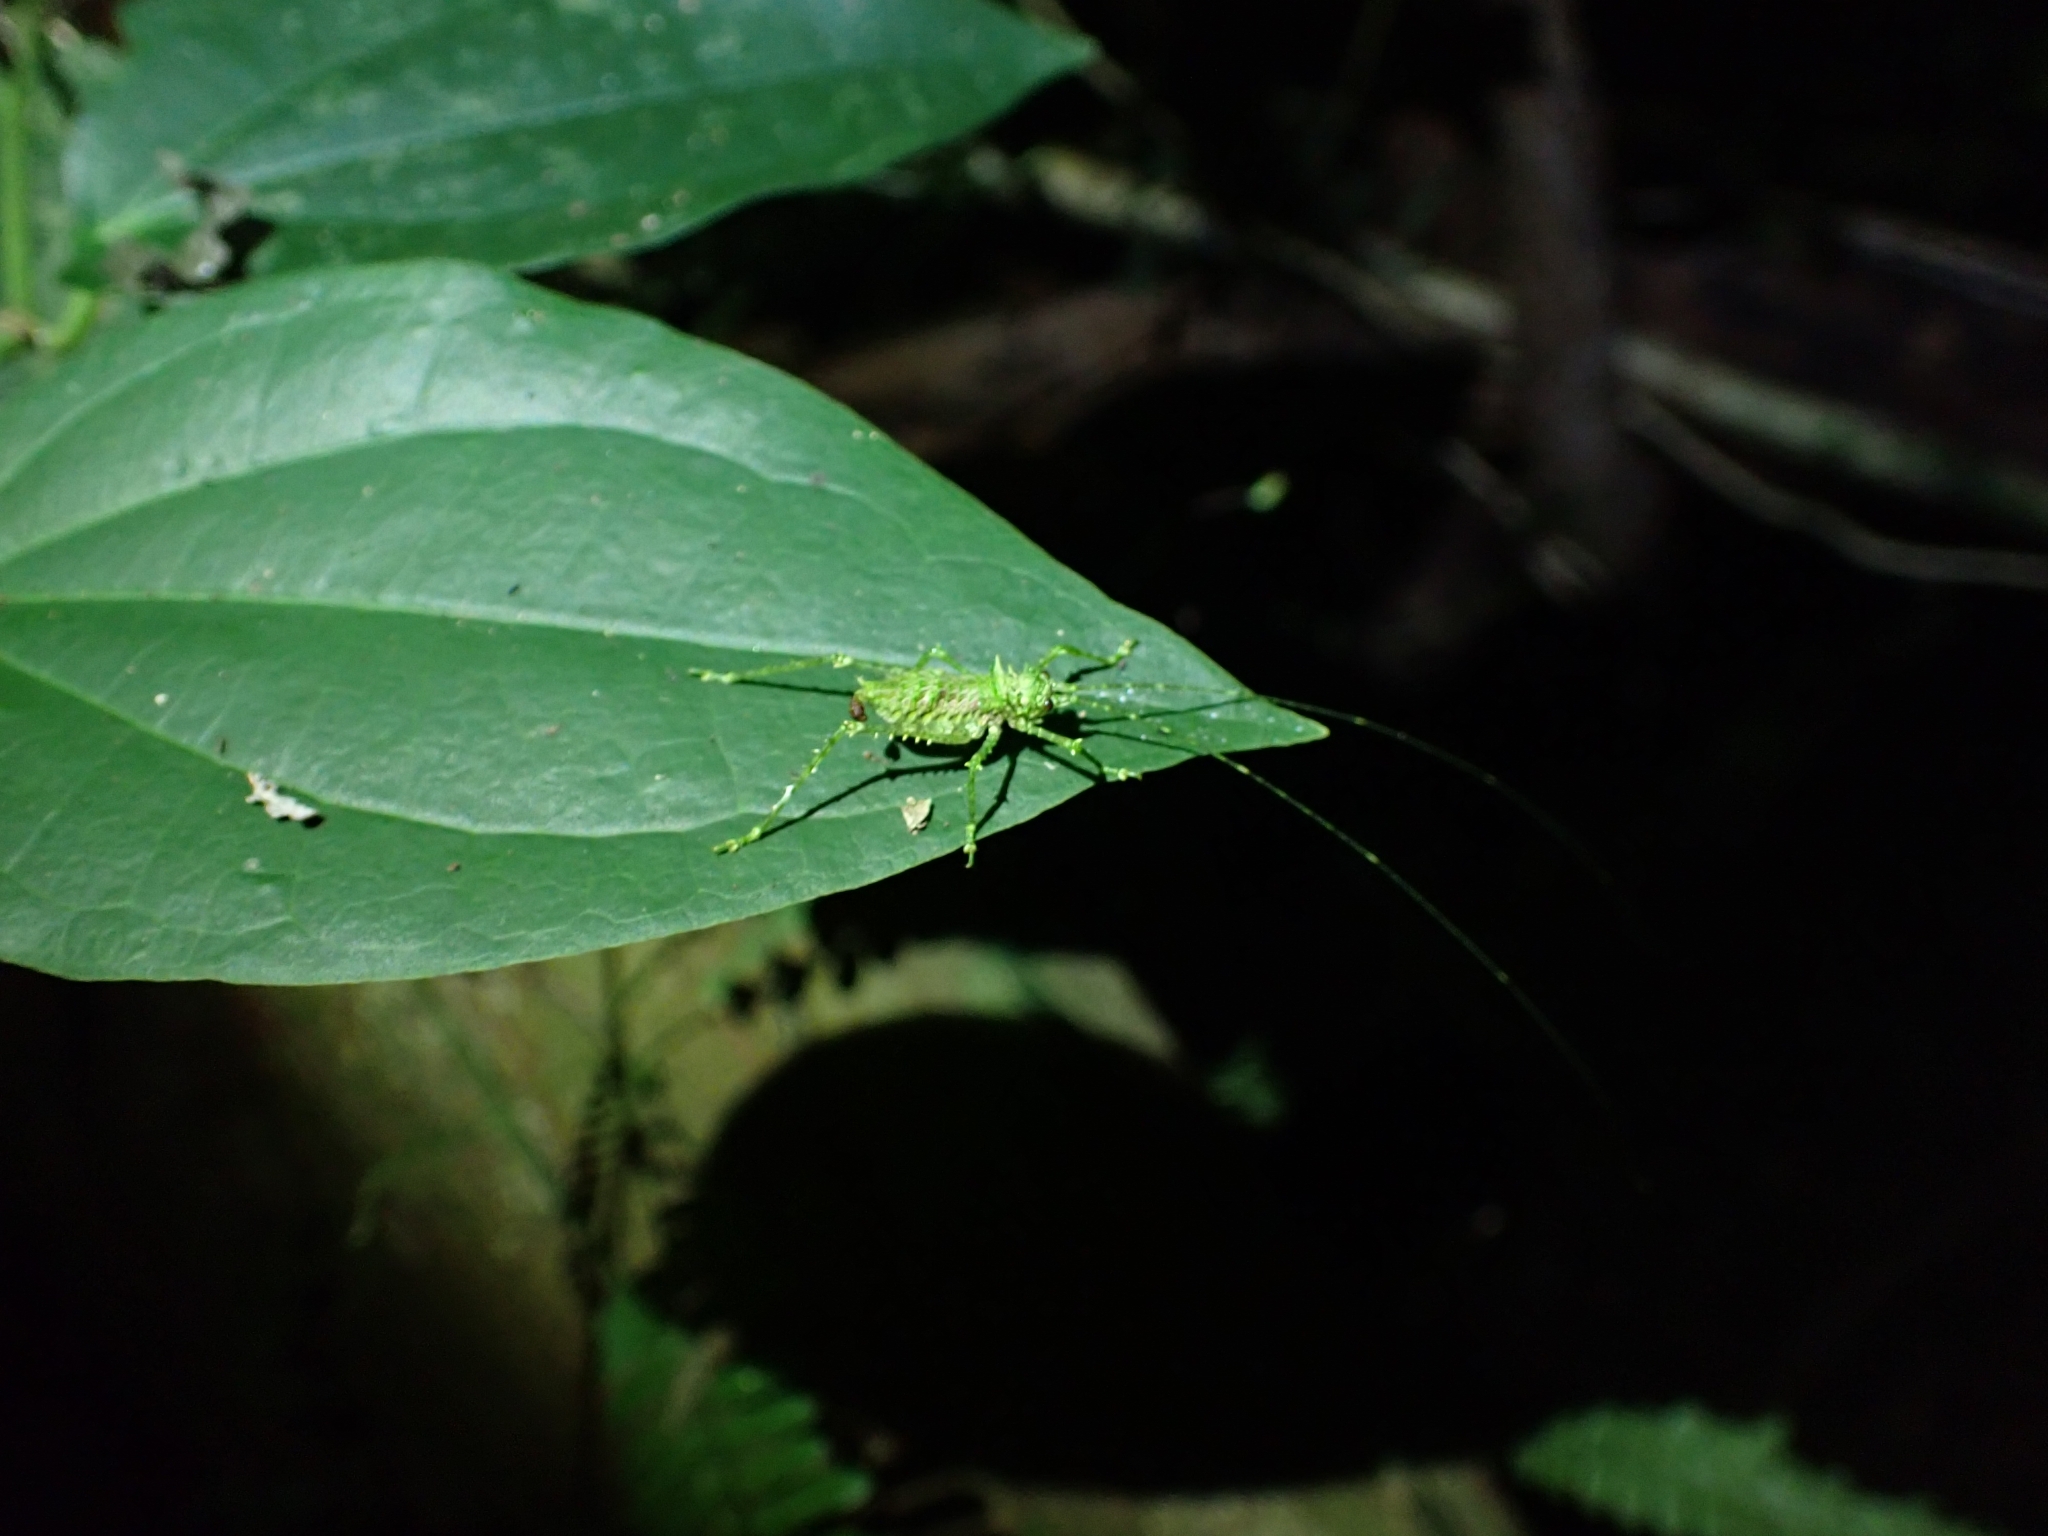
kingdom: Animalia
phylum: Arthropoda
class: Insecta
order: Orthoptera
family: Tettigoniidae
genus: Phricta
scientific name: Phricta tortuwallina
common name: Silent spiny katydid
